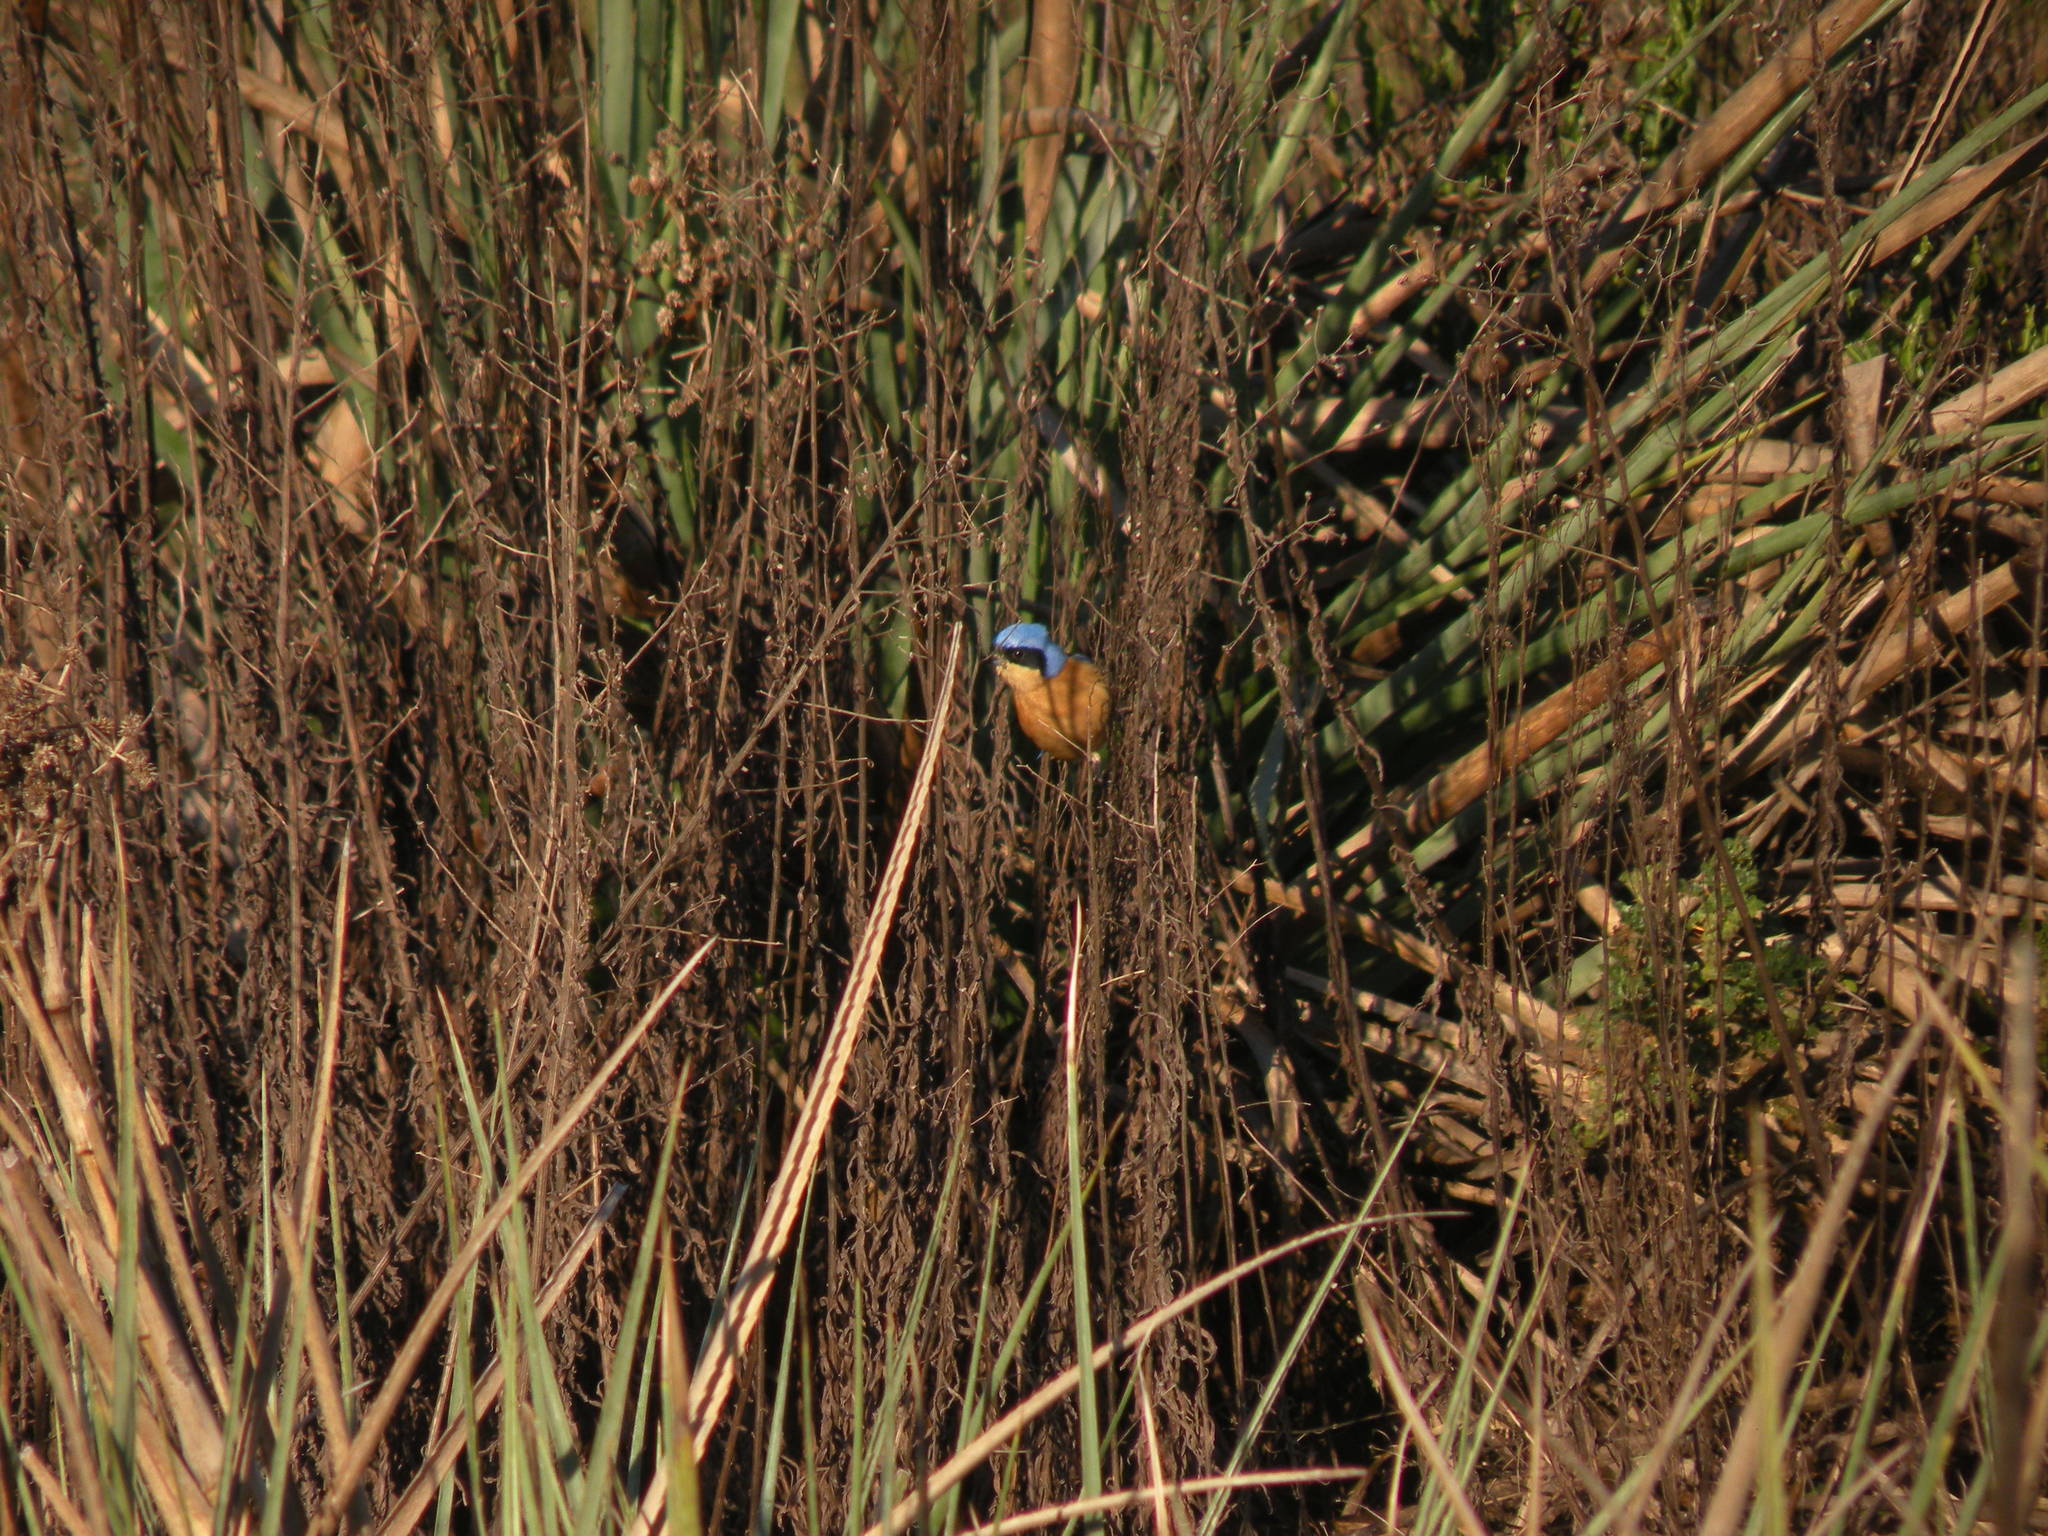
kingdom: Animalia
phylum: Chordata
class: Aves
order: Passeriformes
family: Thraupidae
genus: Pipraeidea
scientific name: Pipraeidea melanonota
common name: Fawn-breasted tanager
